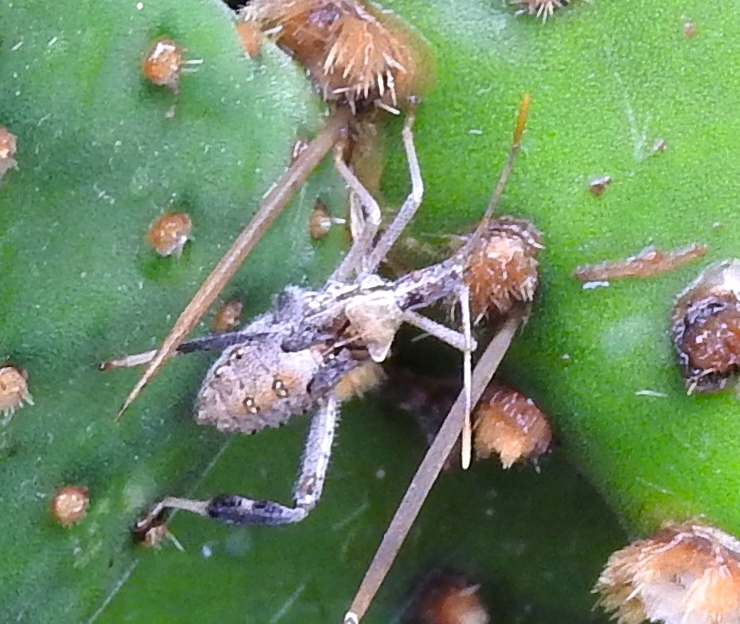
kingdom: Animalia
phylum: Arthropoda
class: Insecta
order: Hemiptera
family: Coreidae
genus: Narnia
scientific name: Narnia
